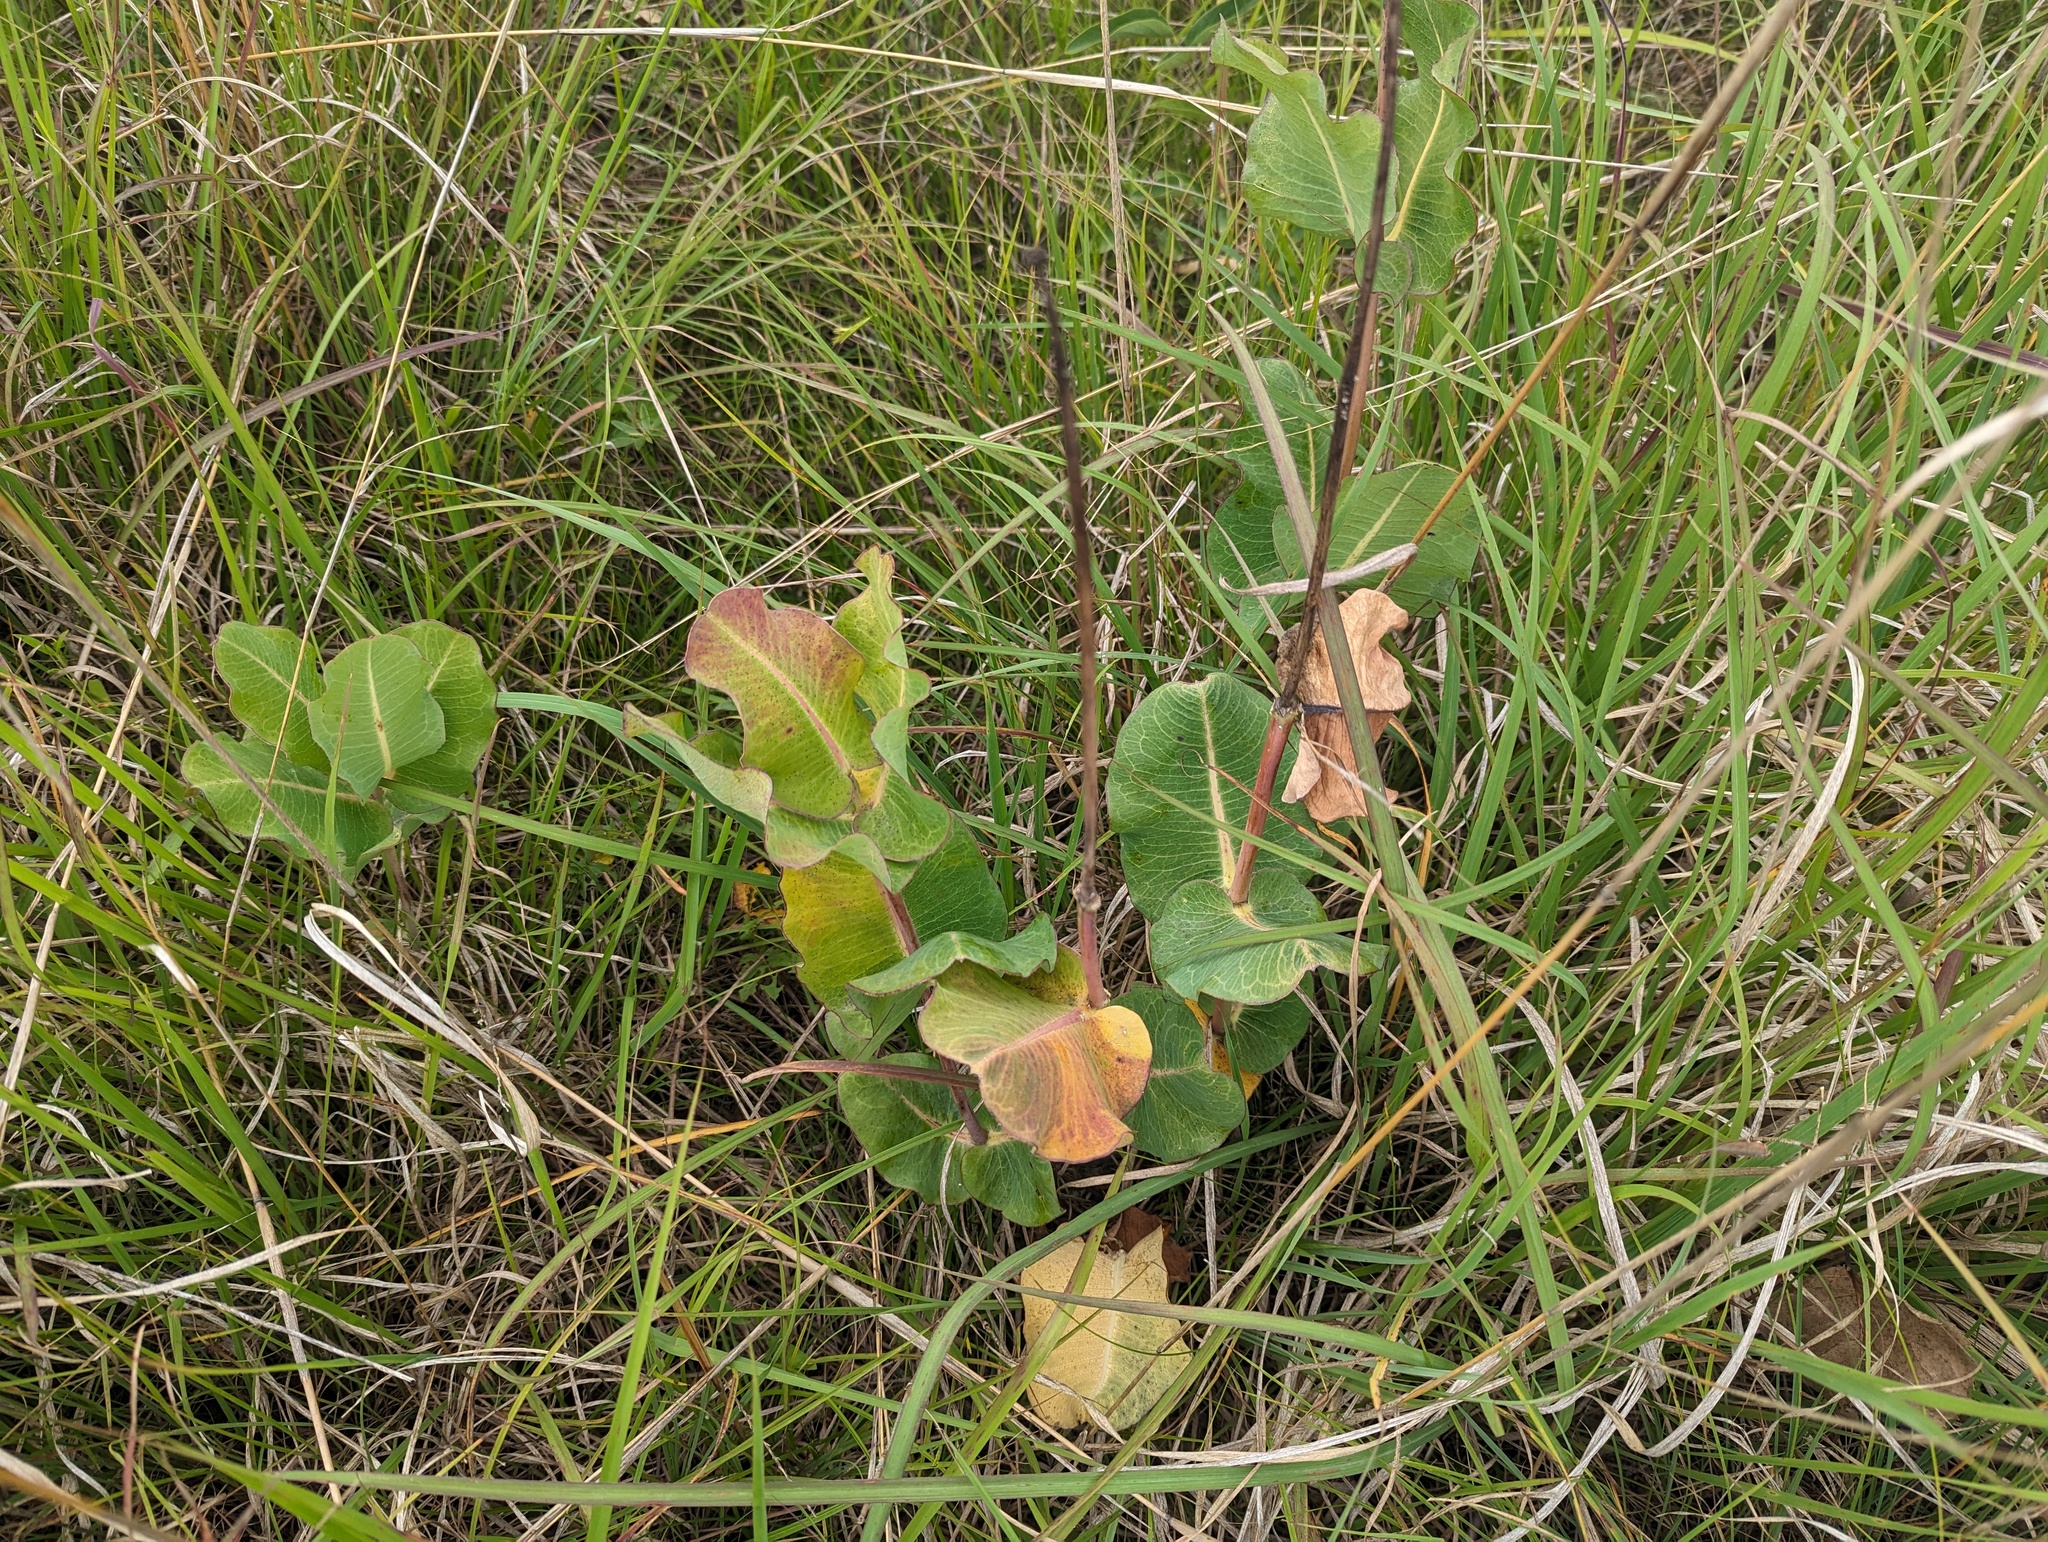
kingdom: Plantae
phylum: Tracheophyta
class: Magnoliopsida
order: Gentianales
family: Apocynaceae
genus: Asclepias
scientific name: Asclepias amplexicaulis
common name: Blunt-leaf milkweed
